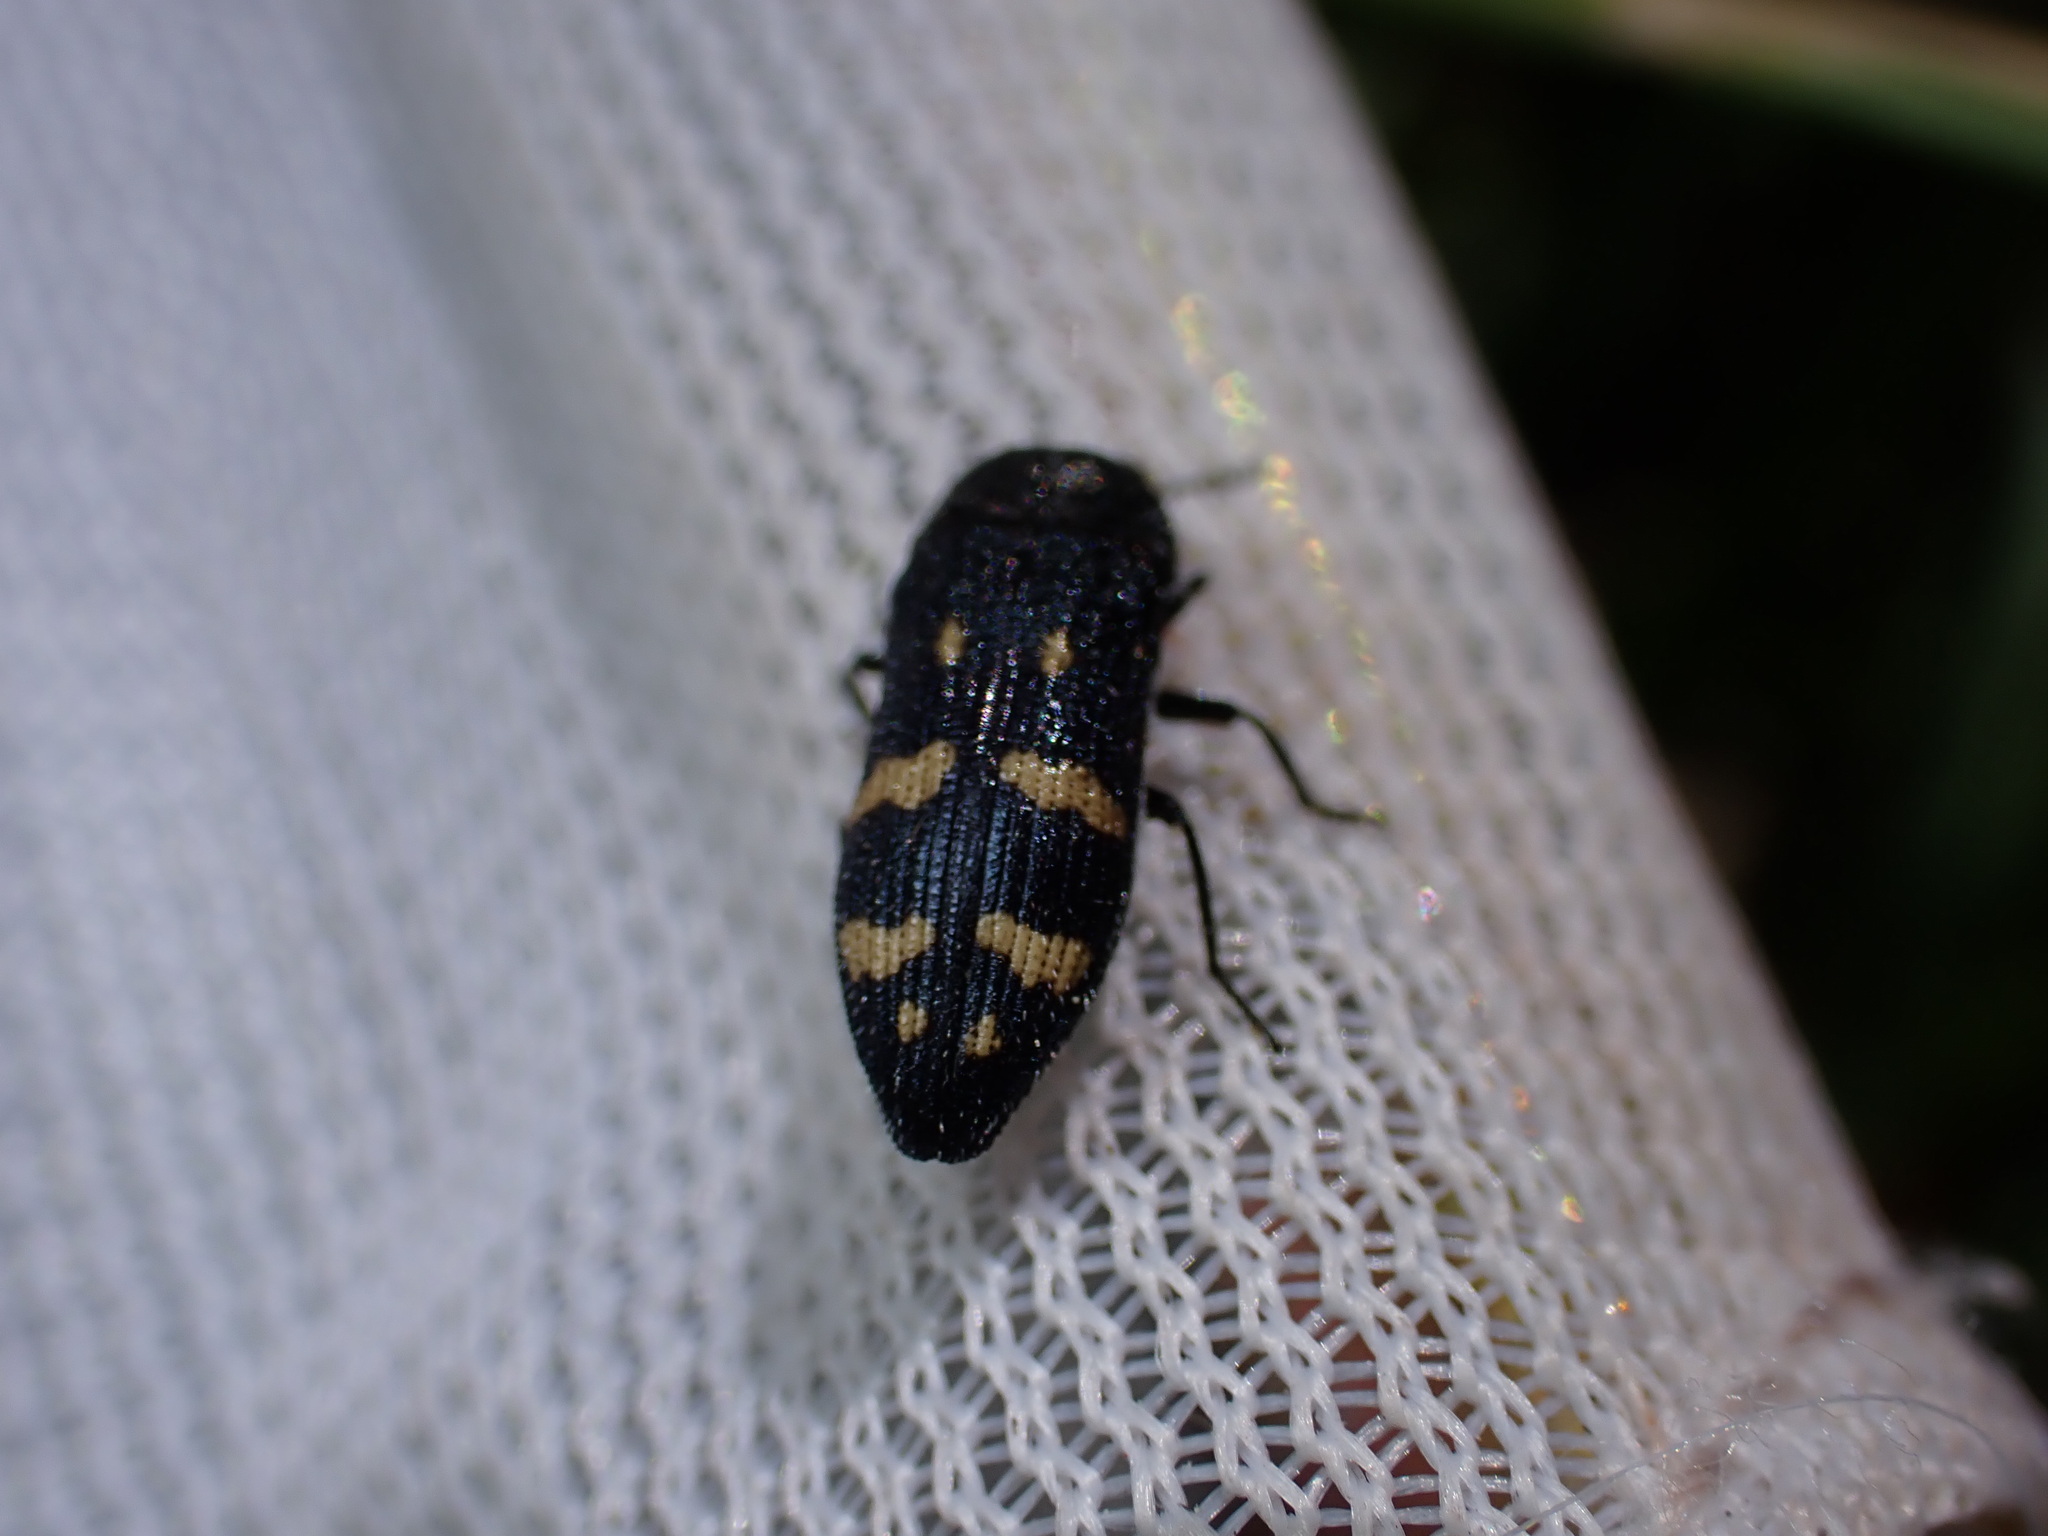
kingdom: Animalia
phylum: Arthropoda
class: Insecta
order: Coleoptera
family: Buprestidae
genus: Acmaeoderella
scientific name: Acmaeoderella flavofasciata
